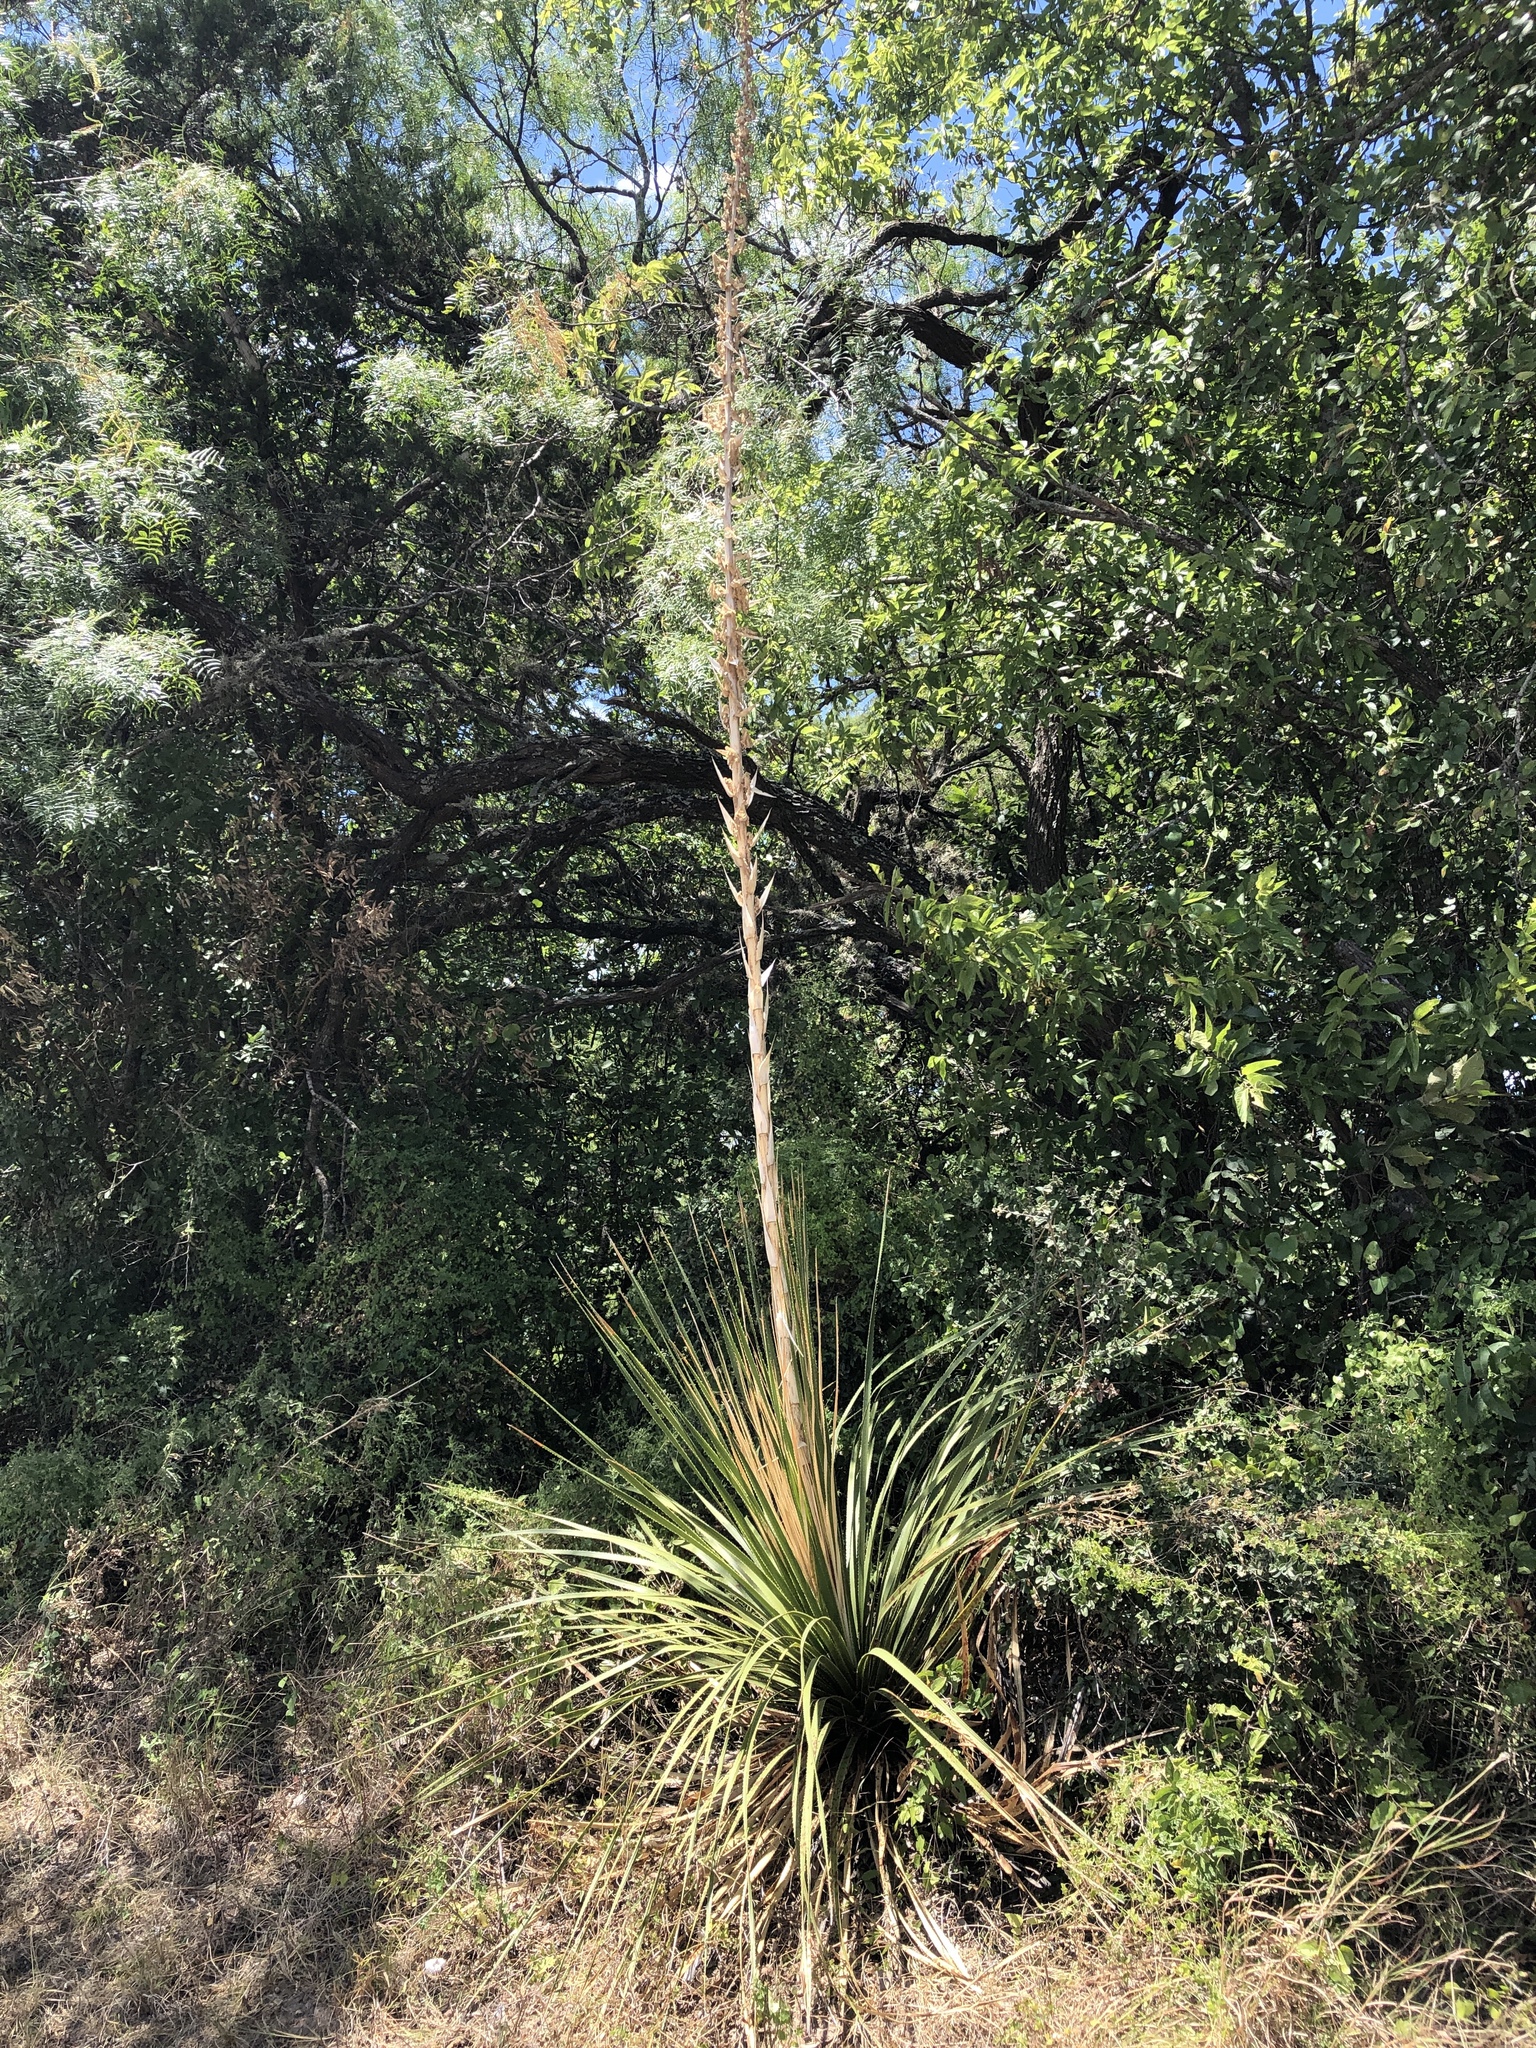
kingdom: Plantae
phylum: Tracheophyta
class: Liliopsida
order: Asparagales
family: Asparagaceae
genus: Dasylirion
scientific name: Dasylirion texanum
